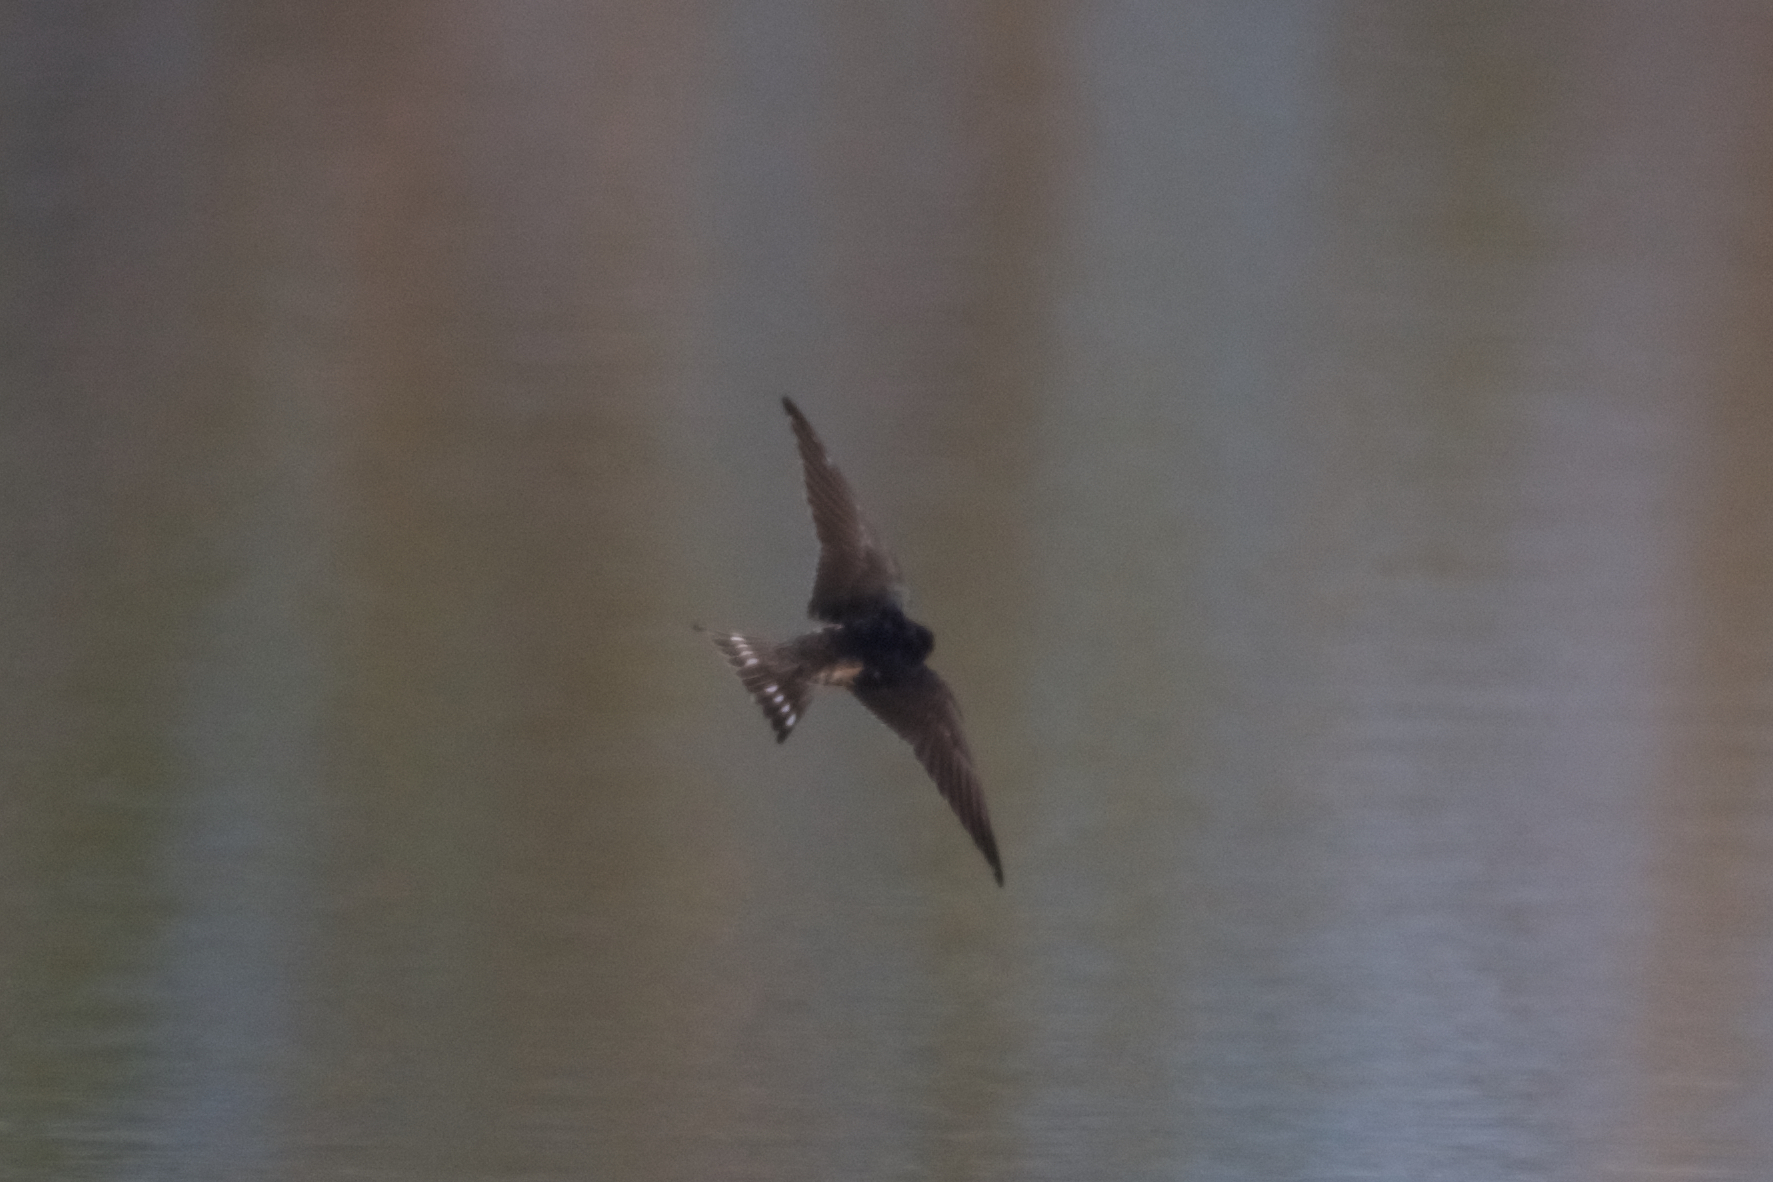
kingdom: Animalia
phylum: Chordata
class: Aves
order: Passeriformes
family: Hirundinidae
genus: Hirundo
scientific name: Hirundo rustica
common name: Barn swallow
